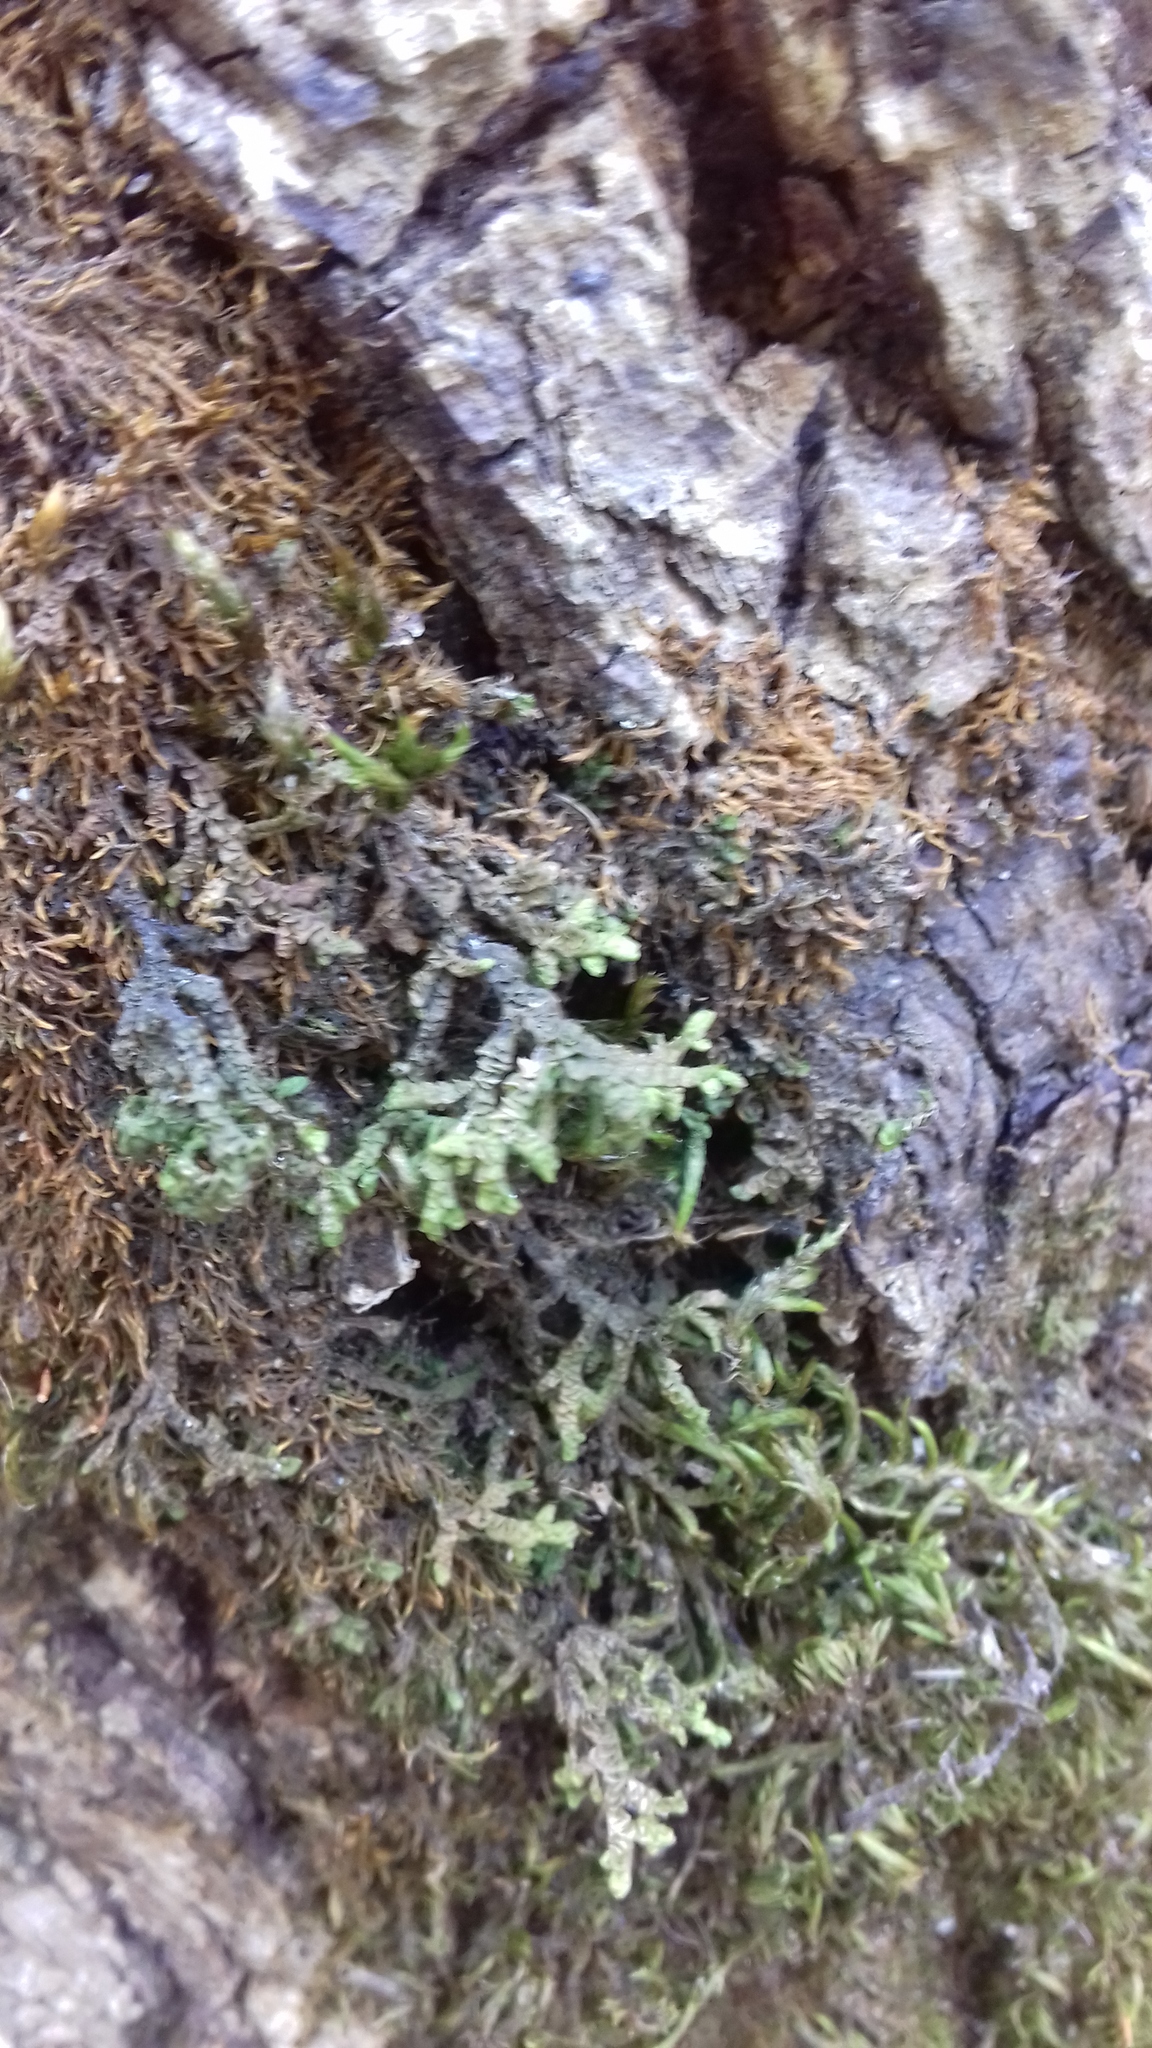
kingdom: Plantae
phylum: Marchantiophyta
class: Jungermanniopsida
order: Porellales
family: Porellaceae
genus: Porella
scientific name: Porella platyphylla
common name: Wall scalewort
